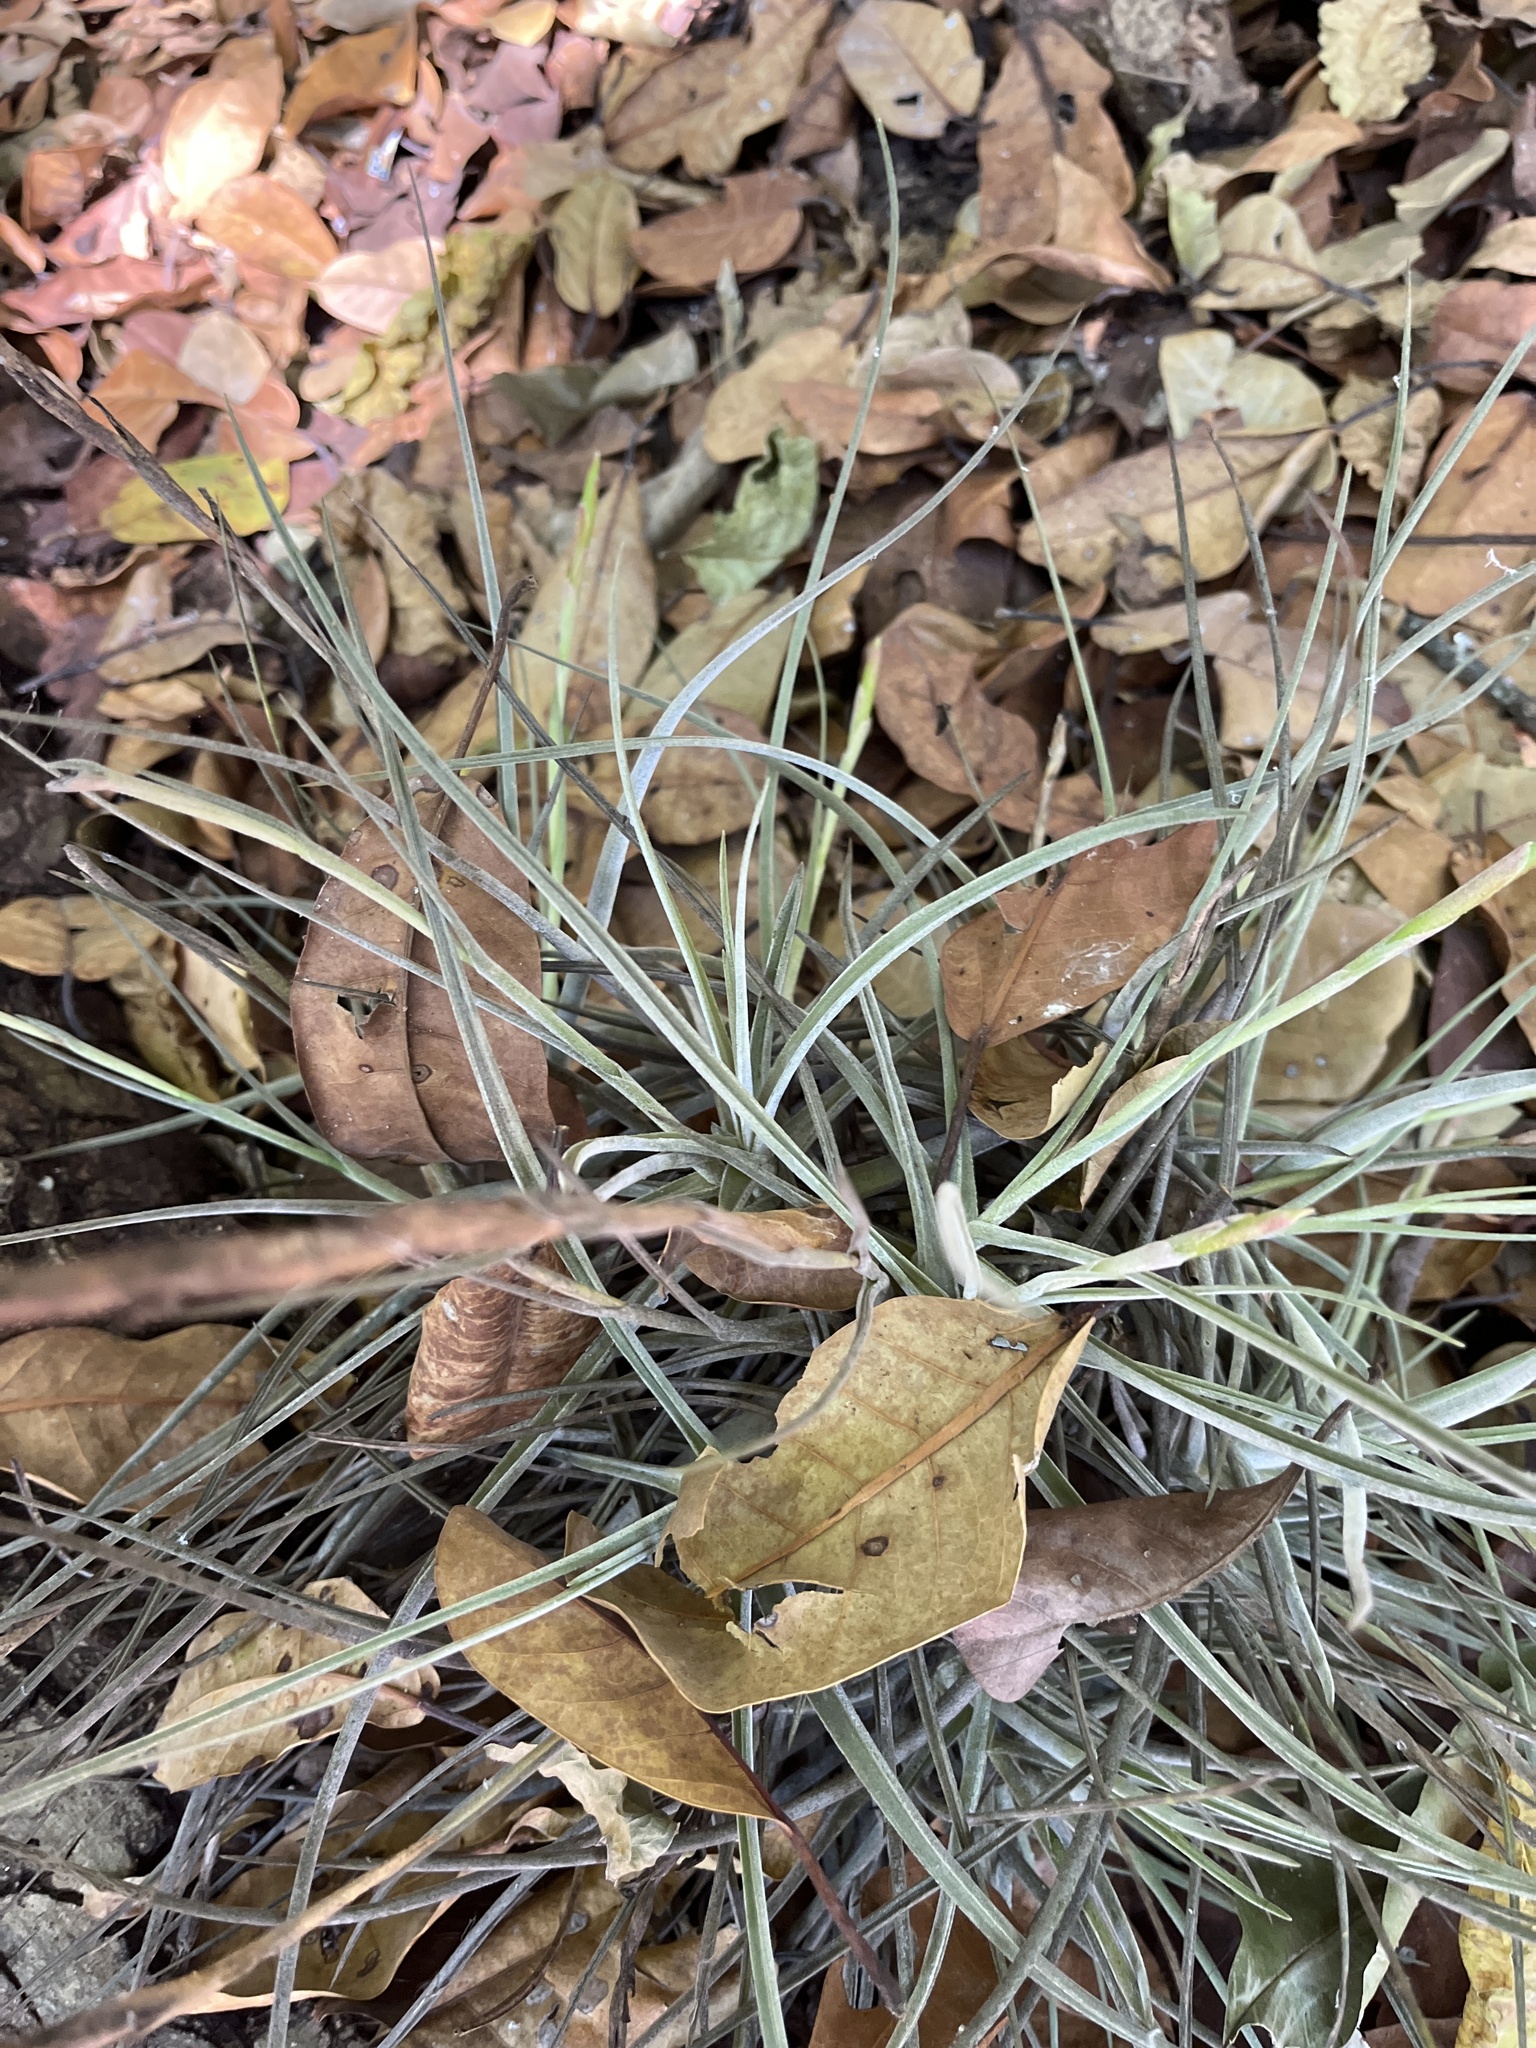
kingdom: Plantae
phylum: Tracheophyta
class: Liliopsida
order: Poales
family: Bromeliaceae
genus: Tillandsia
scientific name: Tillandsia schiedeana
